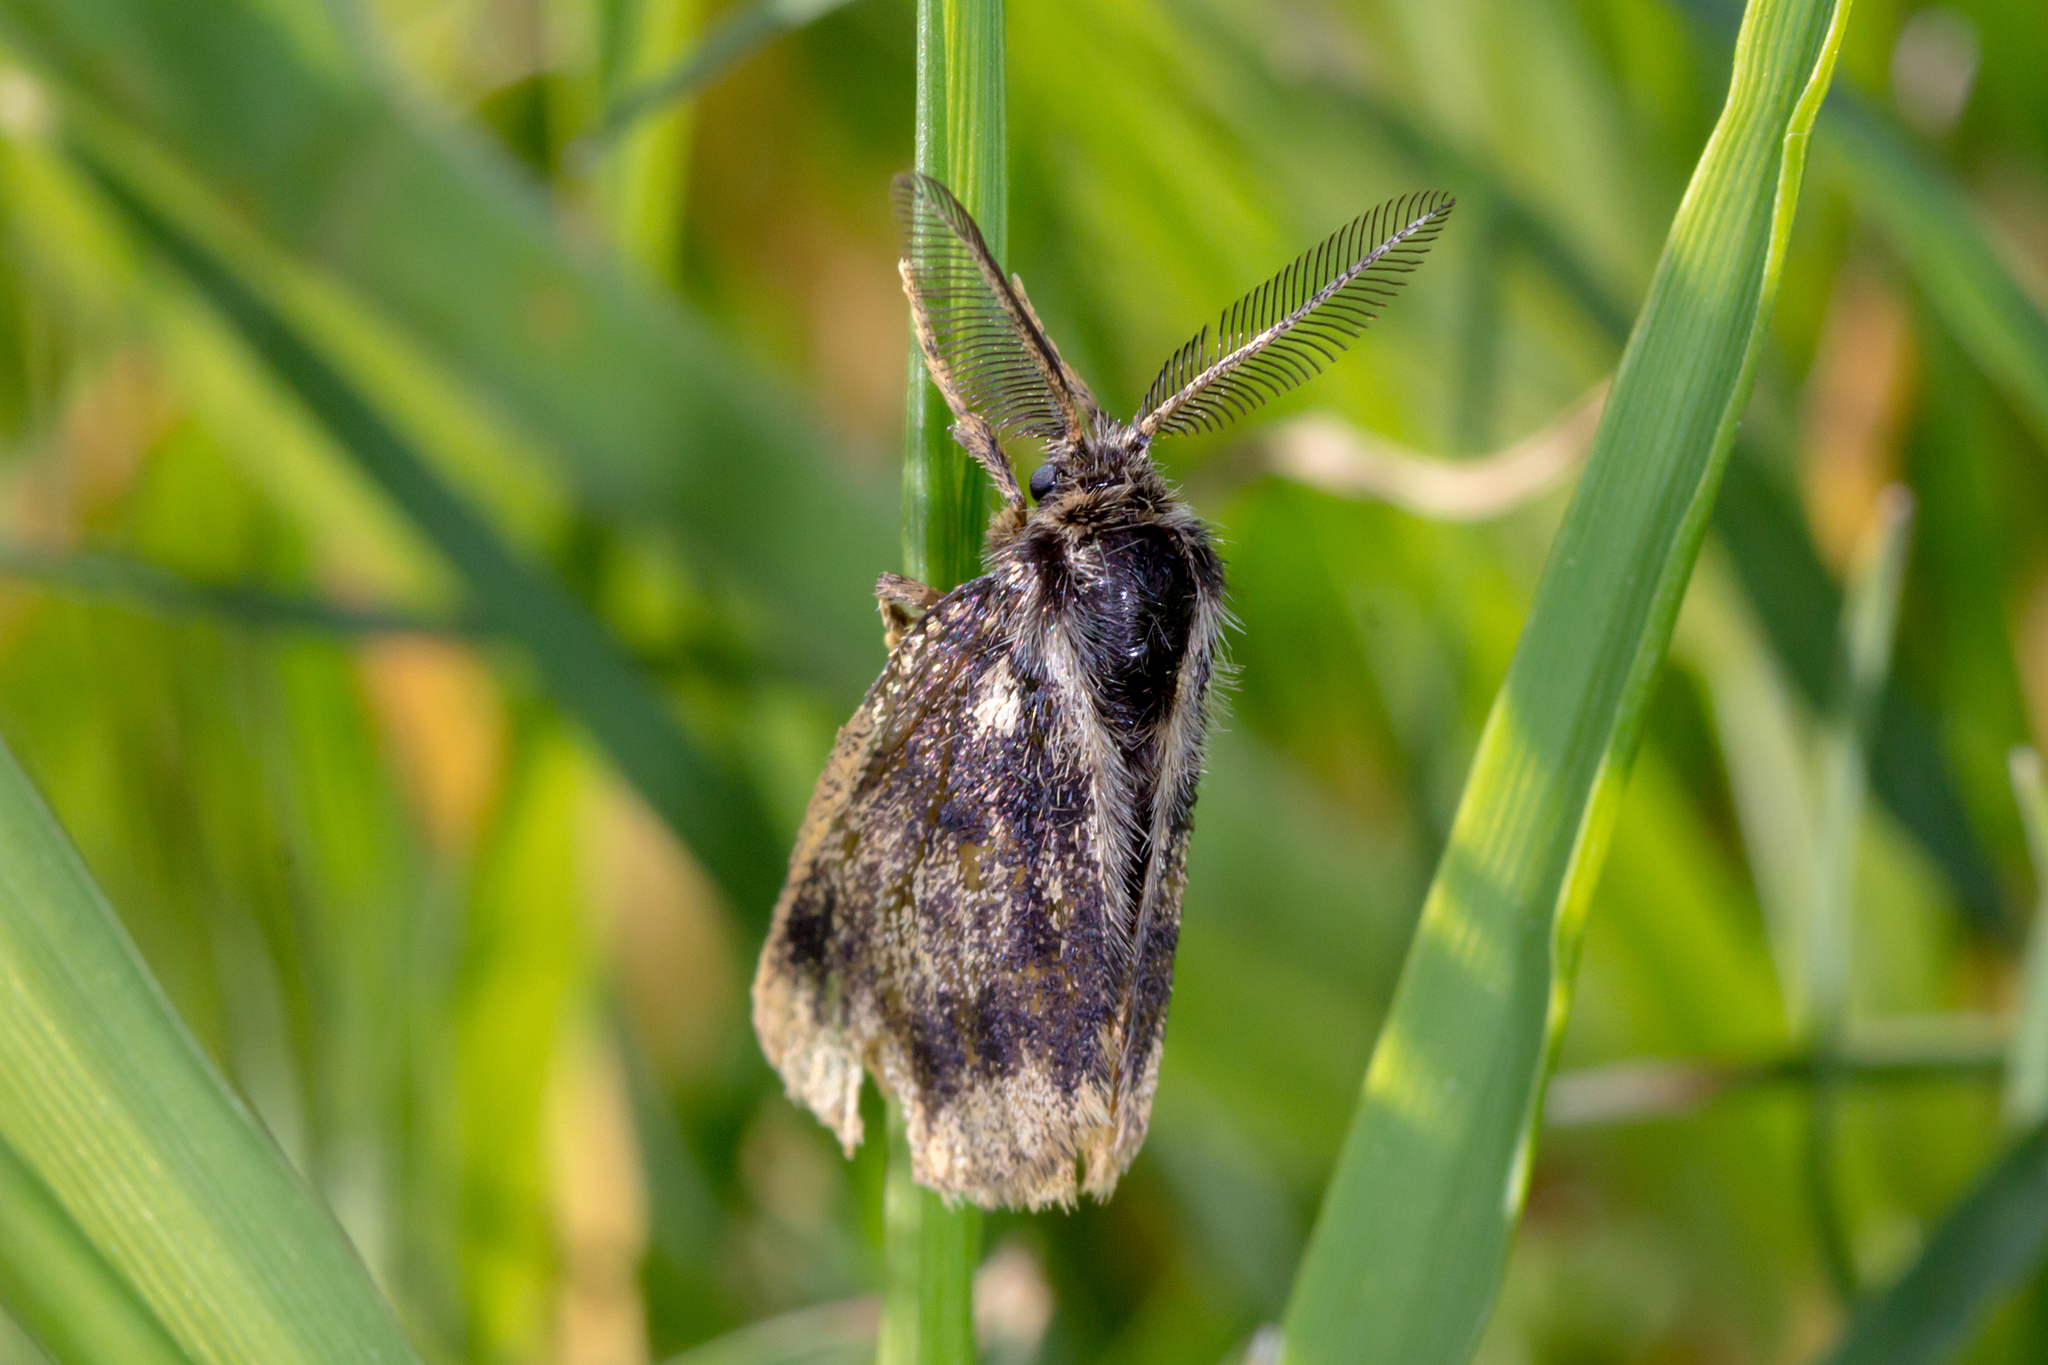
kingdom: Animalia
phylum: Arthropoda
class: Insecta
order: Lepidoptera
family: Erebidae
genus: Euproctis
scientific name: Euproctis semifusca
